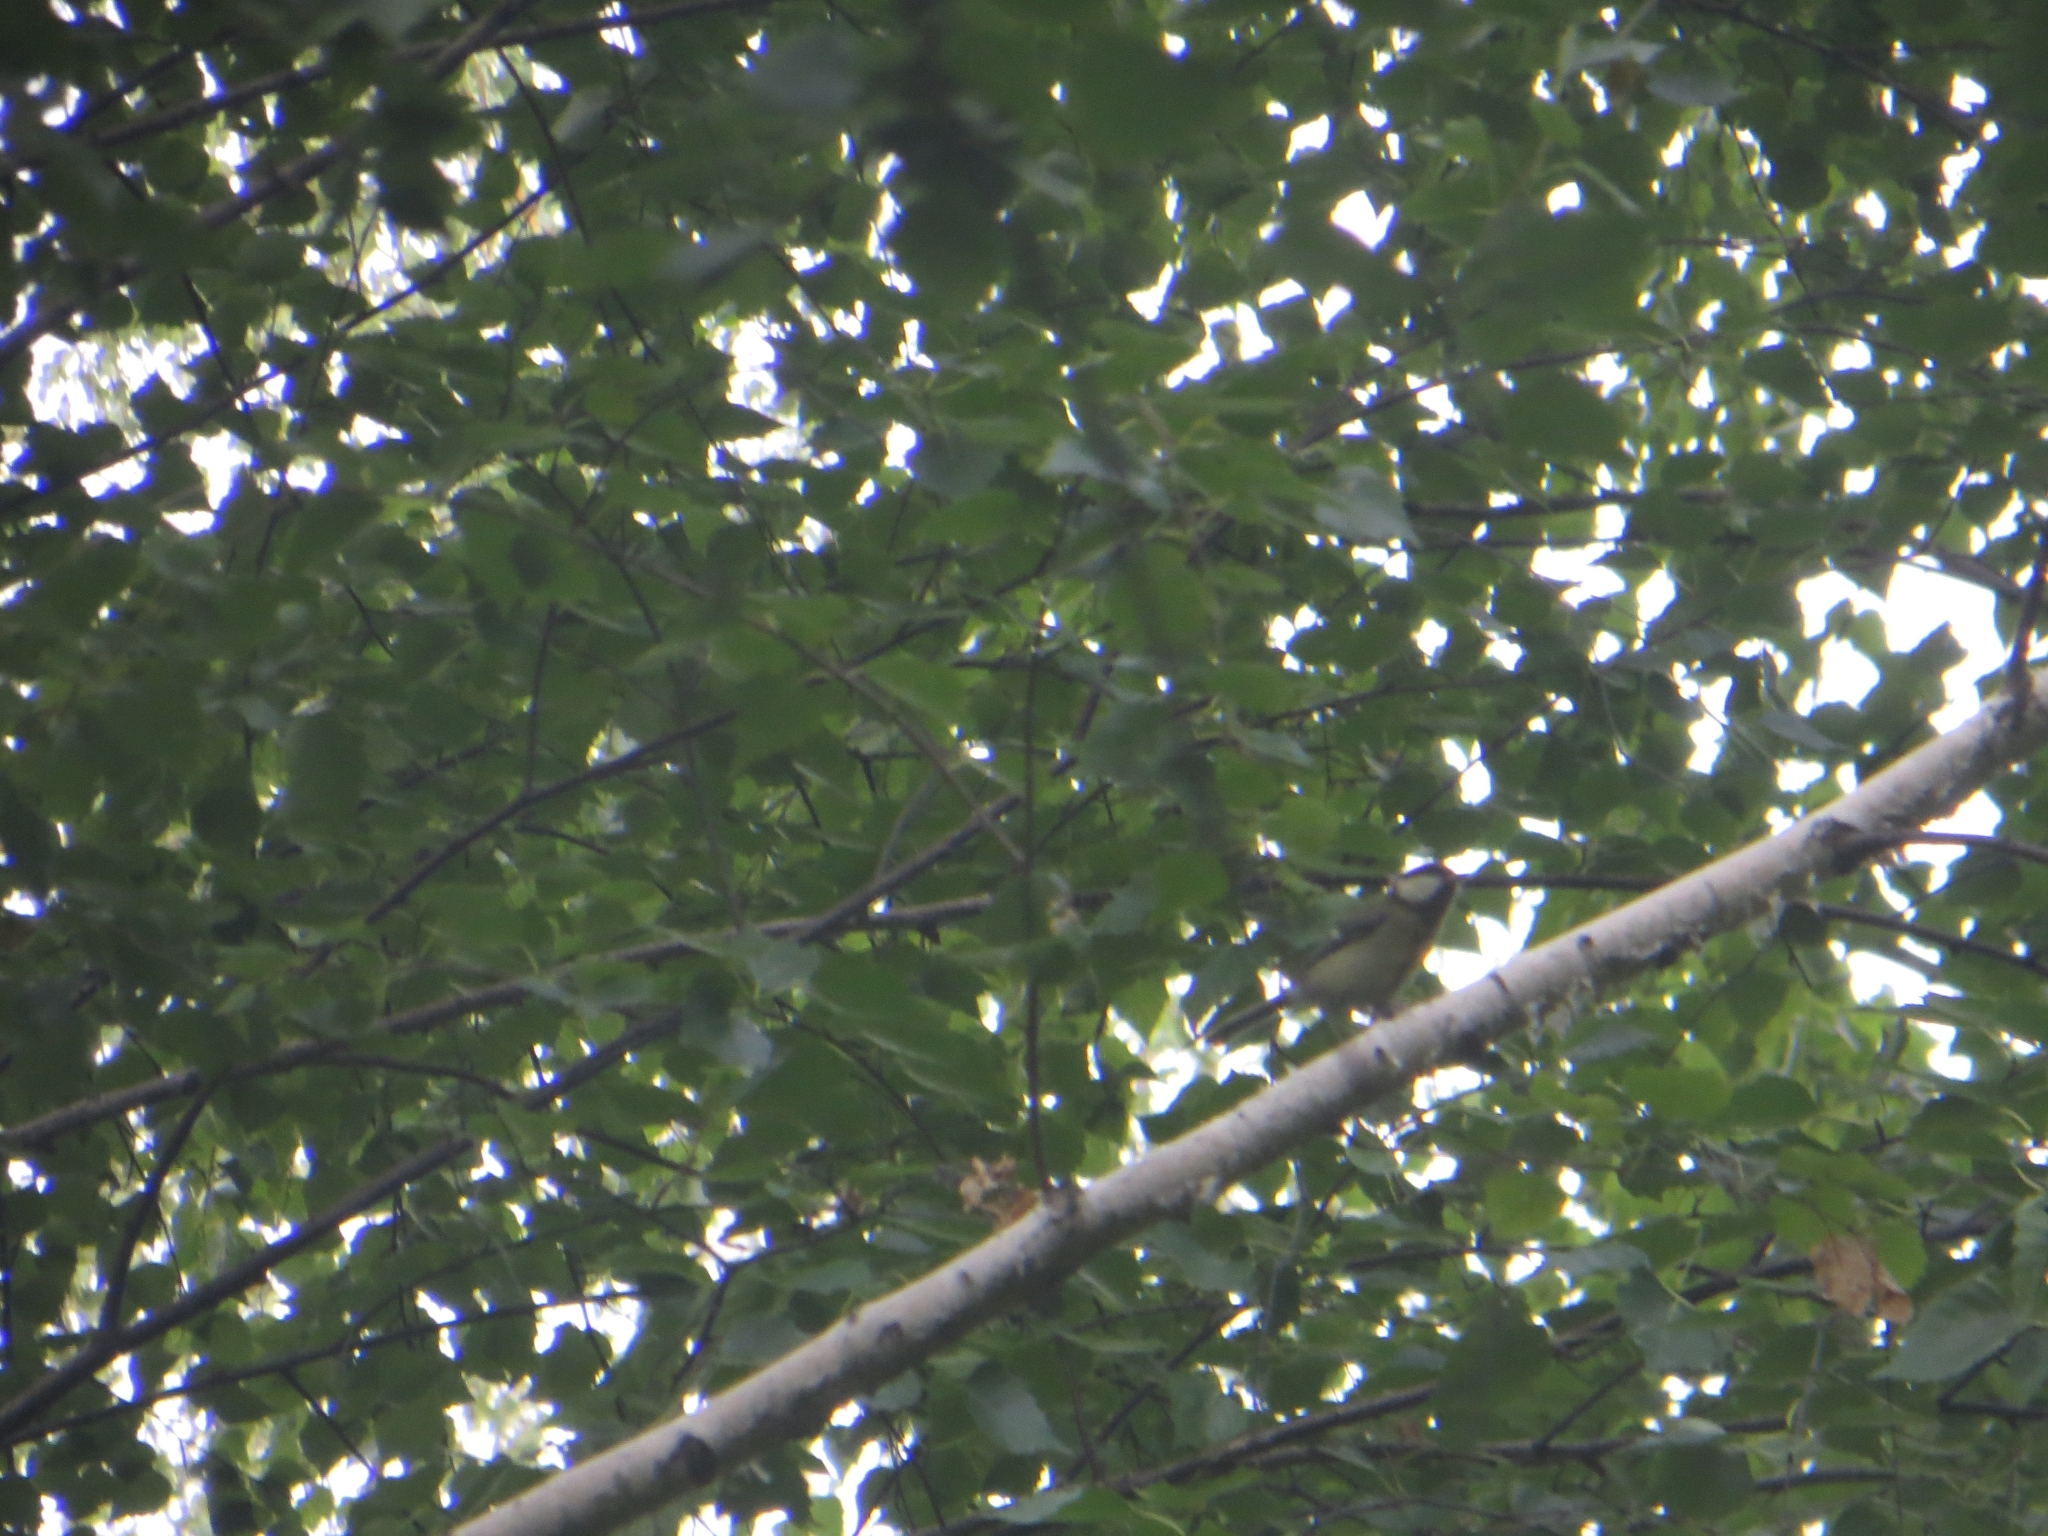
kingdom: Animalia
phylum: Chordata
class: Aves
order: Passeriformes
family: Paridae
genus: Parus
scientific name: Parus major
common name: Great tit
